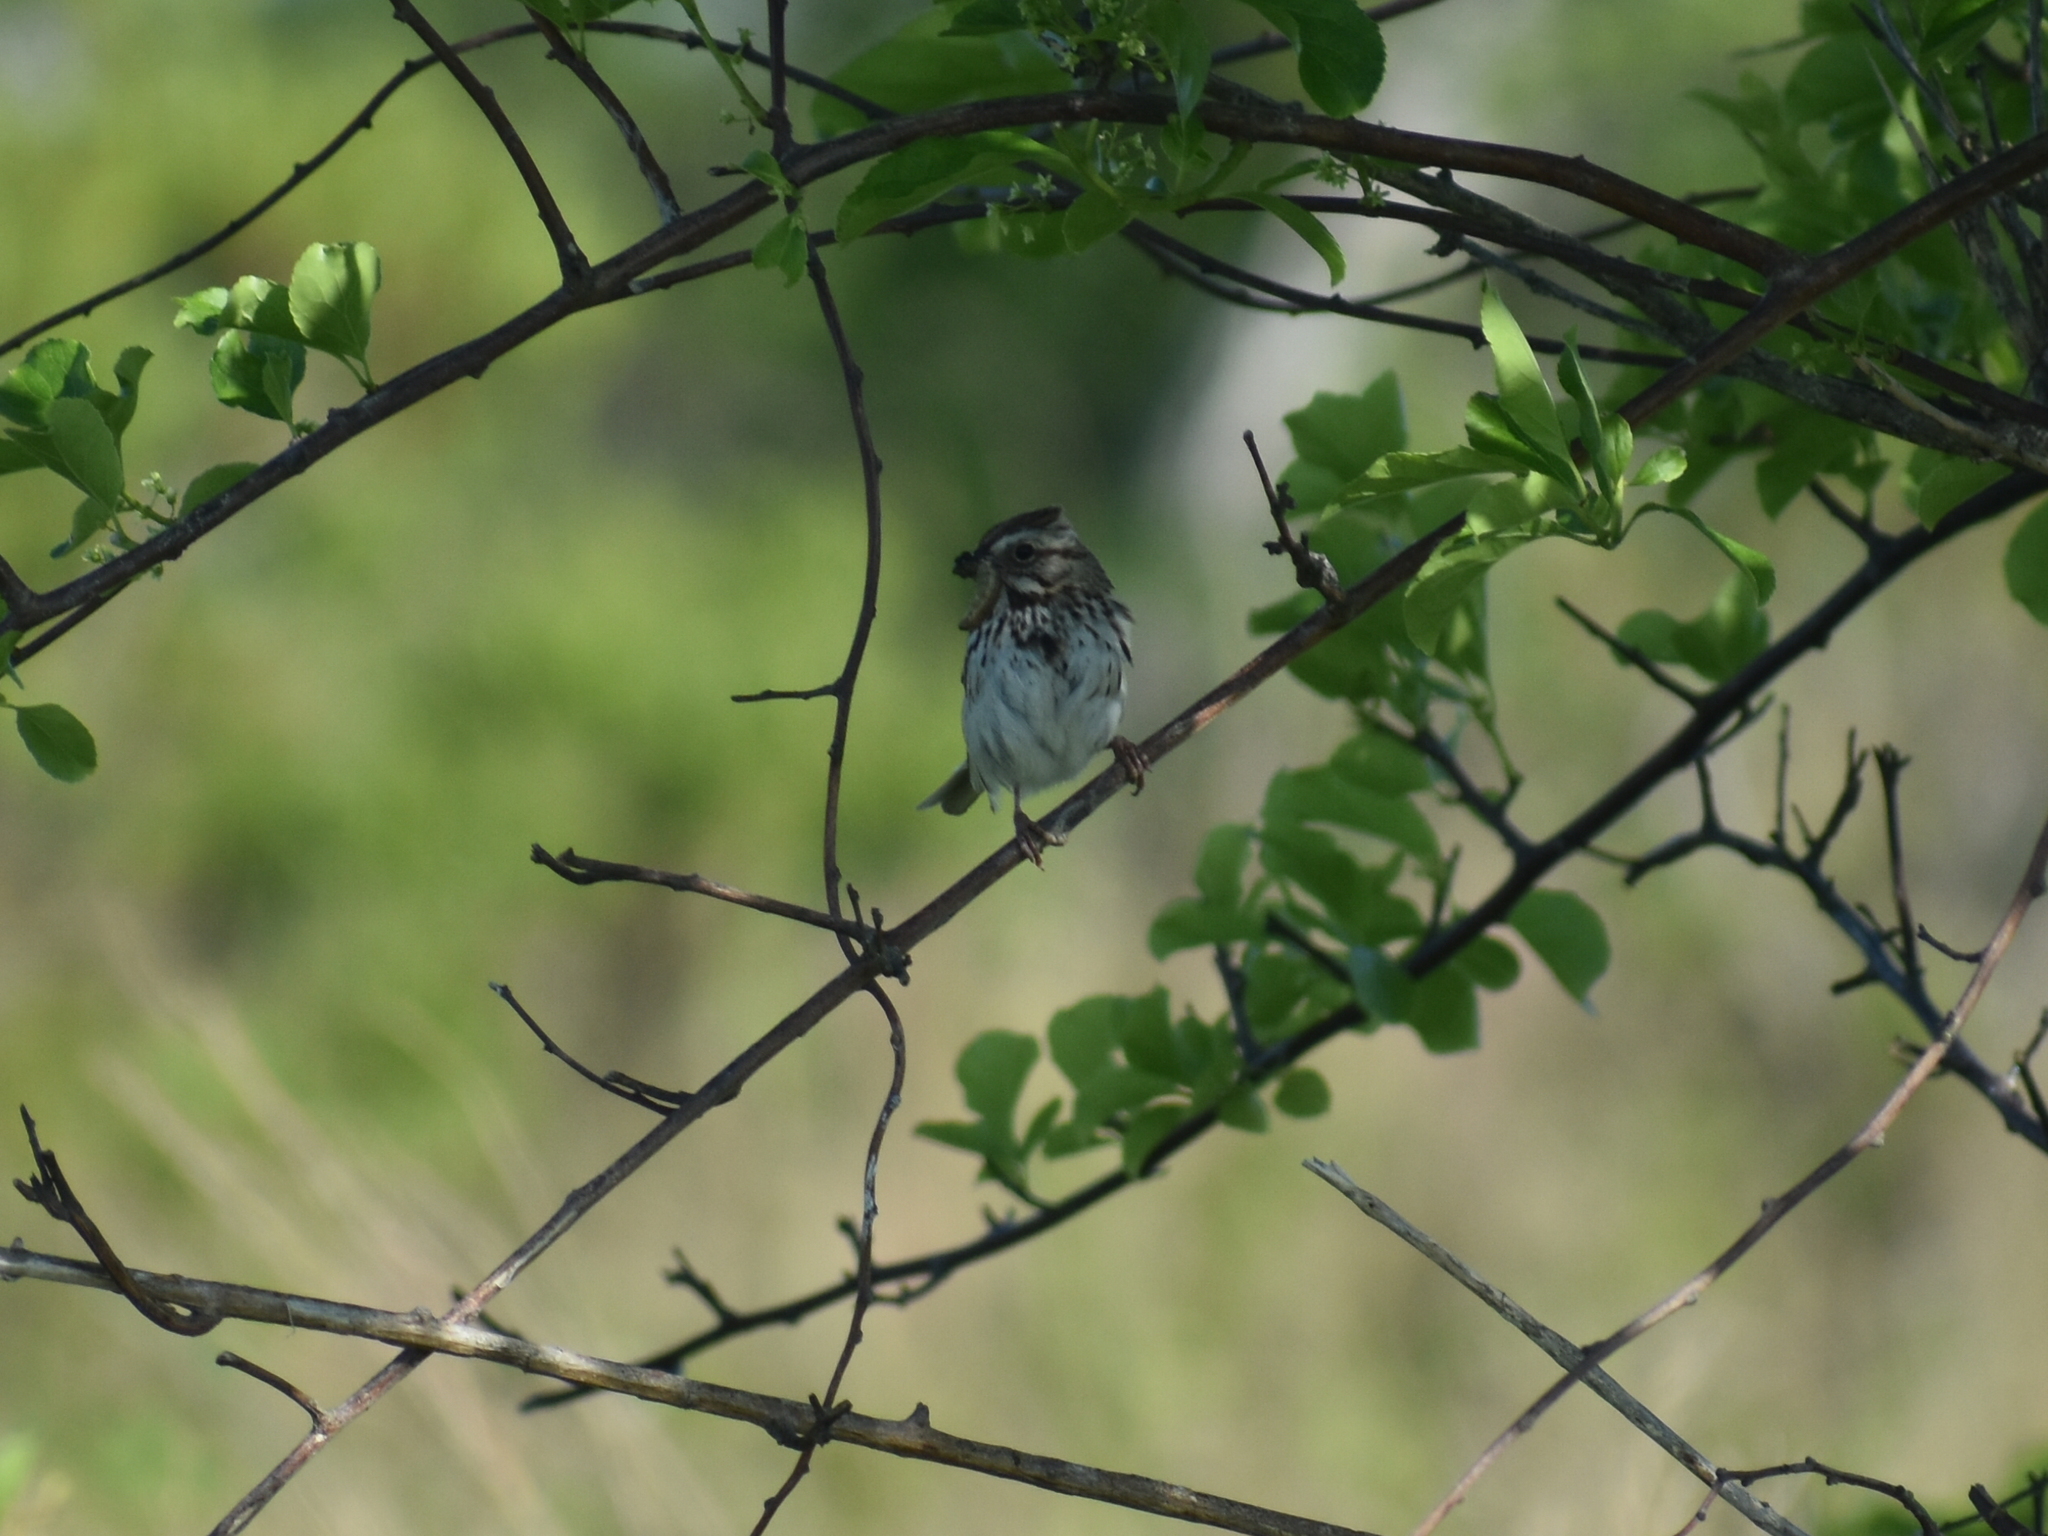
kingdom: Animalia
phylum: Chordata
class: Aves
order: Passeriformes
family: Passerellidae
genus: Melospiza
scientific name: Melospiza melodia
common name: Song sparrow
